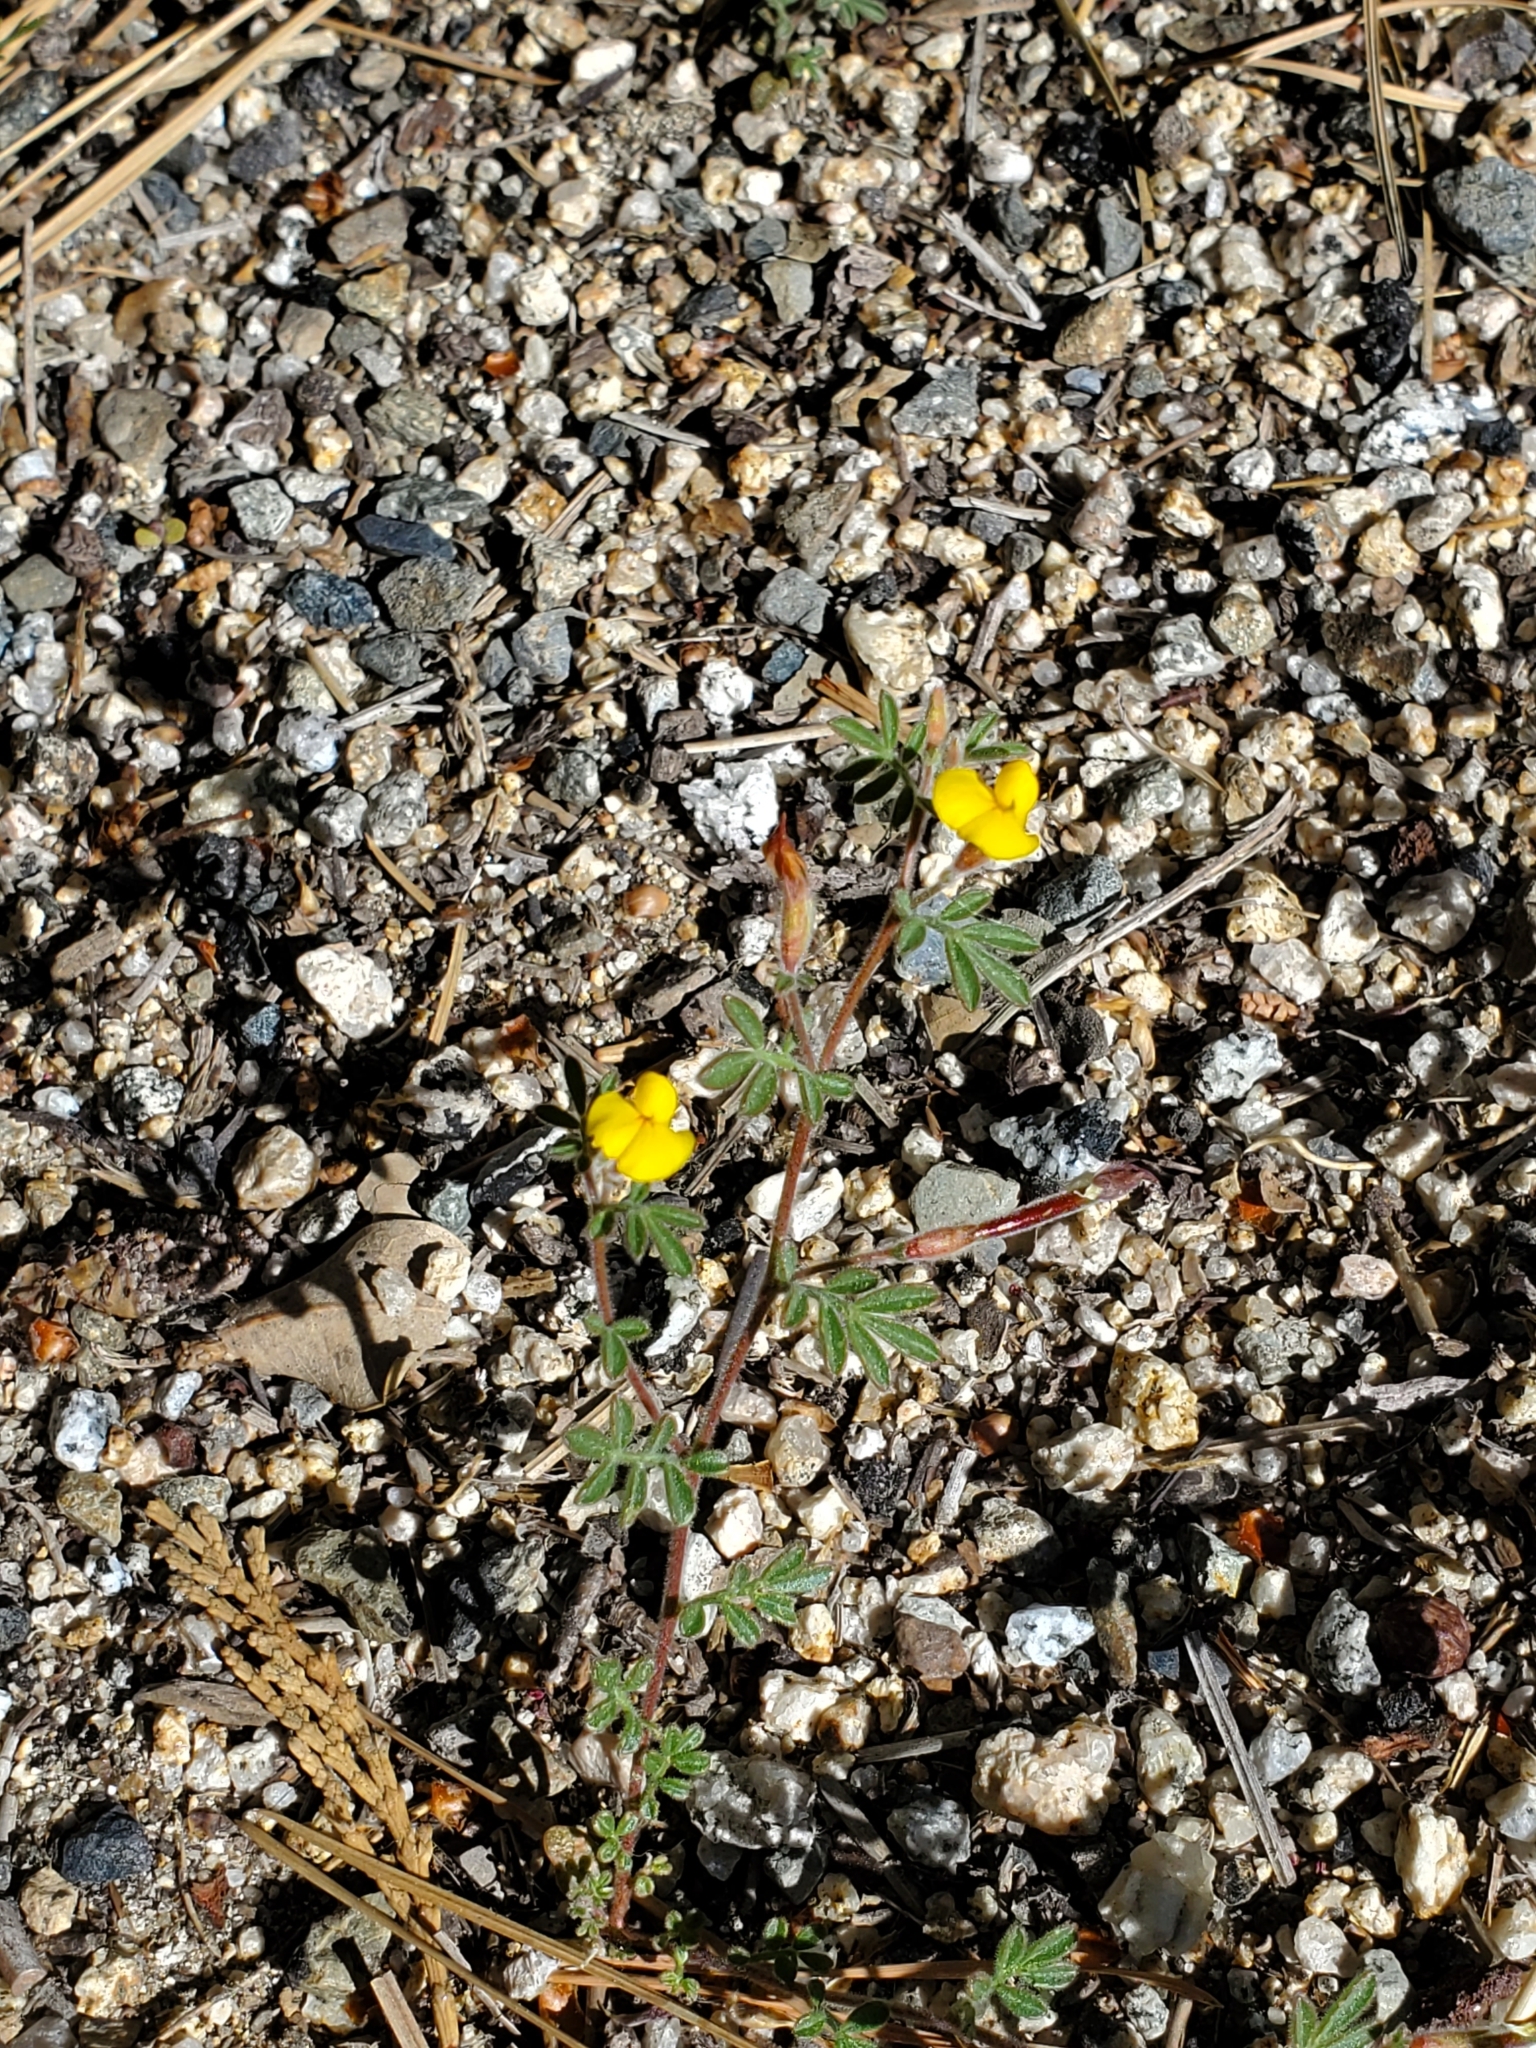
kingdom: Plantae
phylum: Tracheophyta
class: Magnoliopsida
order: Fabales
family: Fabaceae
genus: Acmispon
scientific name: Acmispon strigosus
